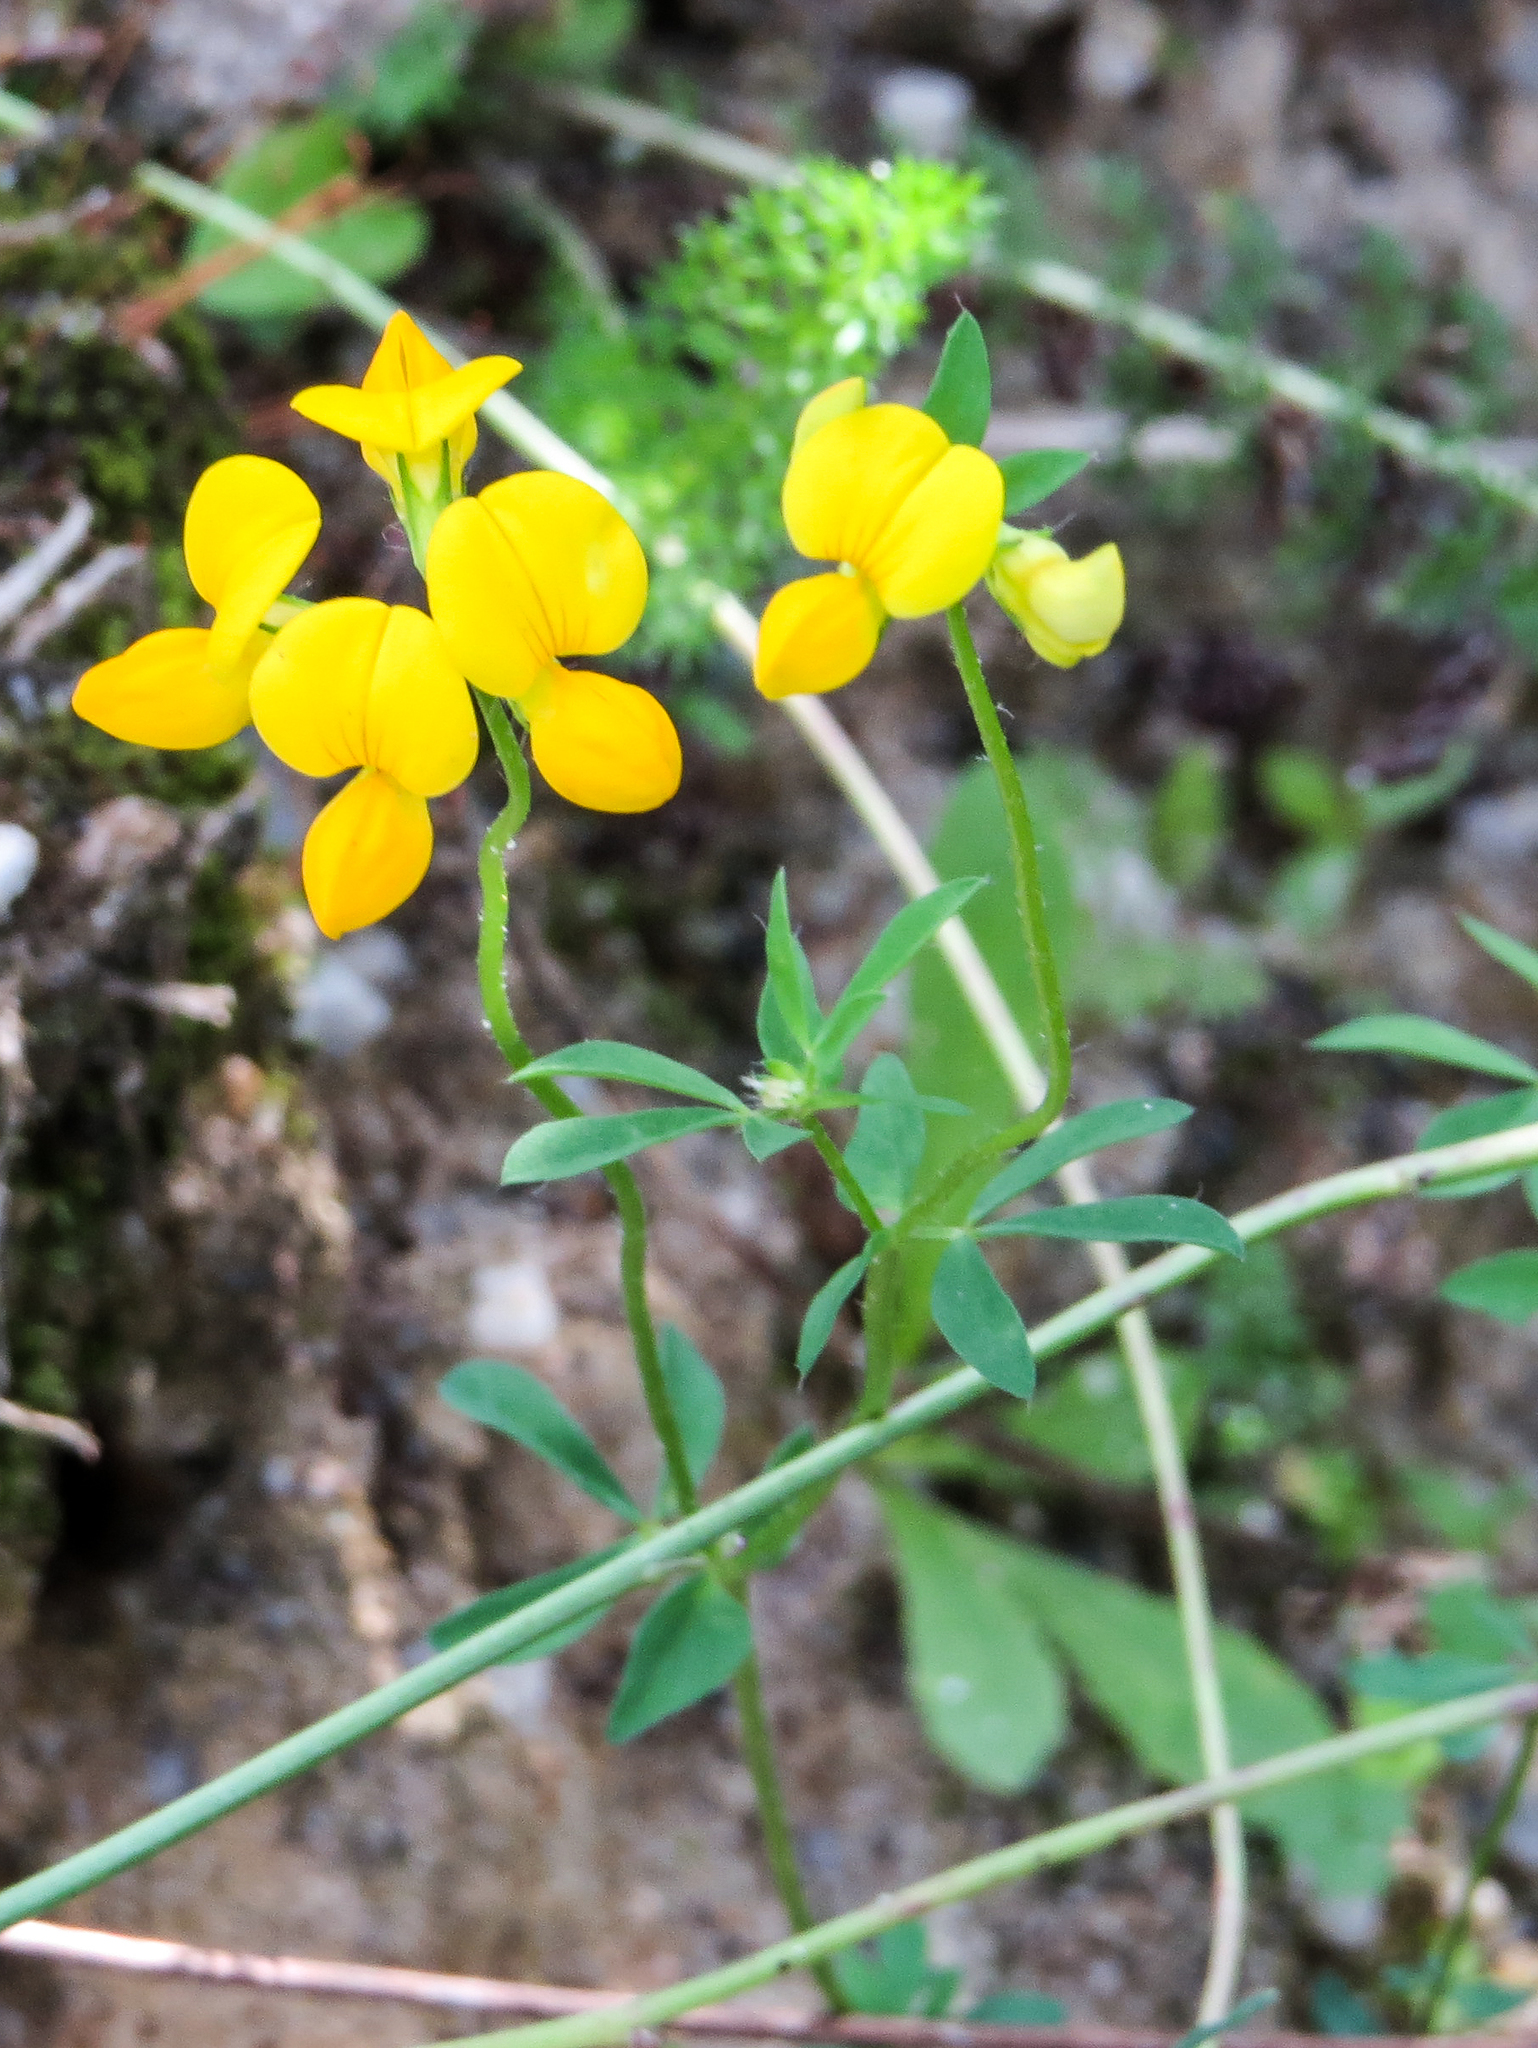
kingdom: Plantae
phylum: Tracheophyta
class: Magnoliopsida
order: Fabales
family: Fabaceae
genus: Lotus
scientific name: Lotus corniculatus
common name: Common bird's-foot-trefoil
